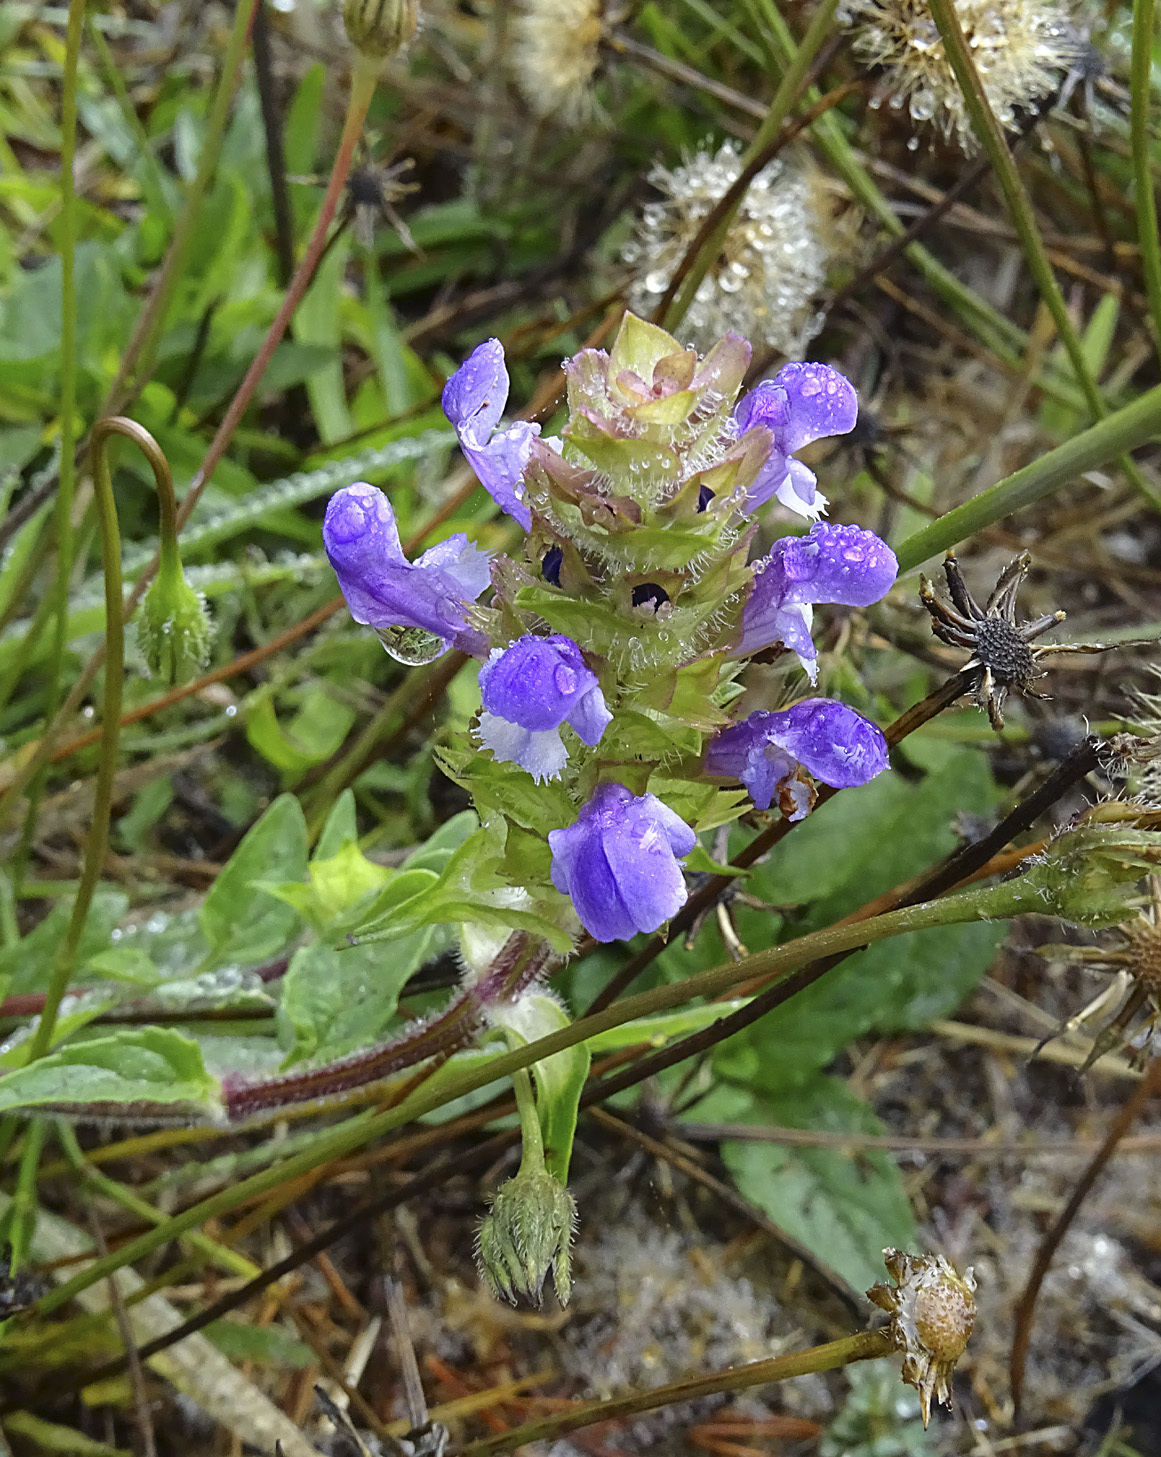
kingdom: Plantae
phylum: Tracheophyta
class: Magnoliopsida
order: Lamiales
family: Lamiaceae
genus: Prunella
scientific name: Prunella vulgaris
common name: Heal-all
